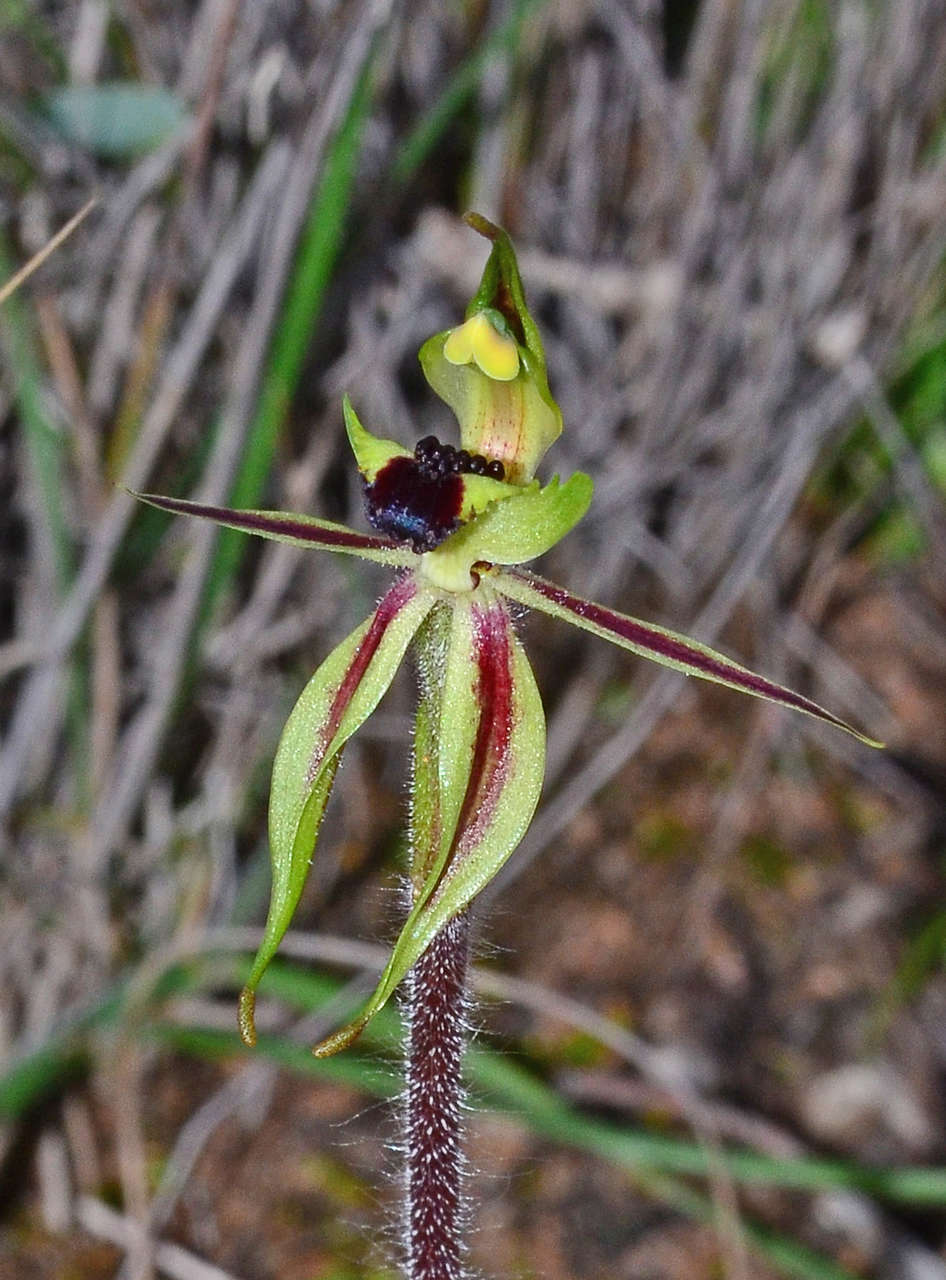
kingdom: Plantae
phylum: Tracheophyta
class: Liliopsida
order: Asparagales
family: Orchidaceae
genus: Caladenia
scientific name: Caladenia toxochila
